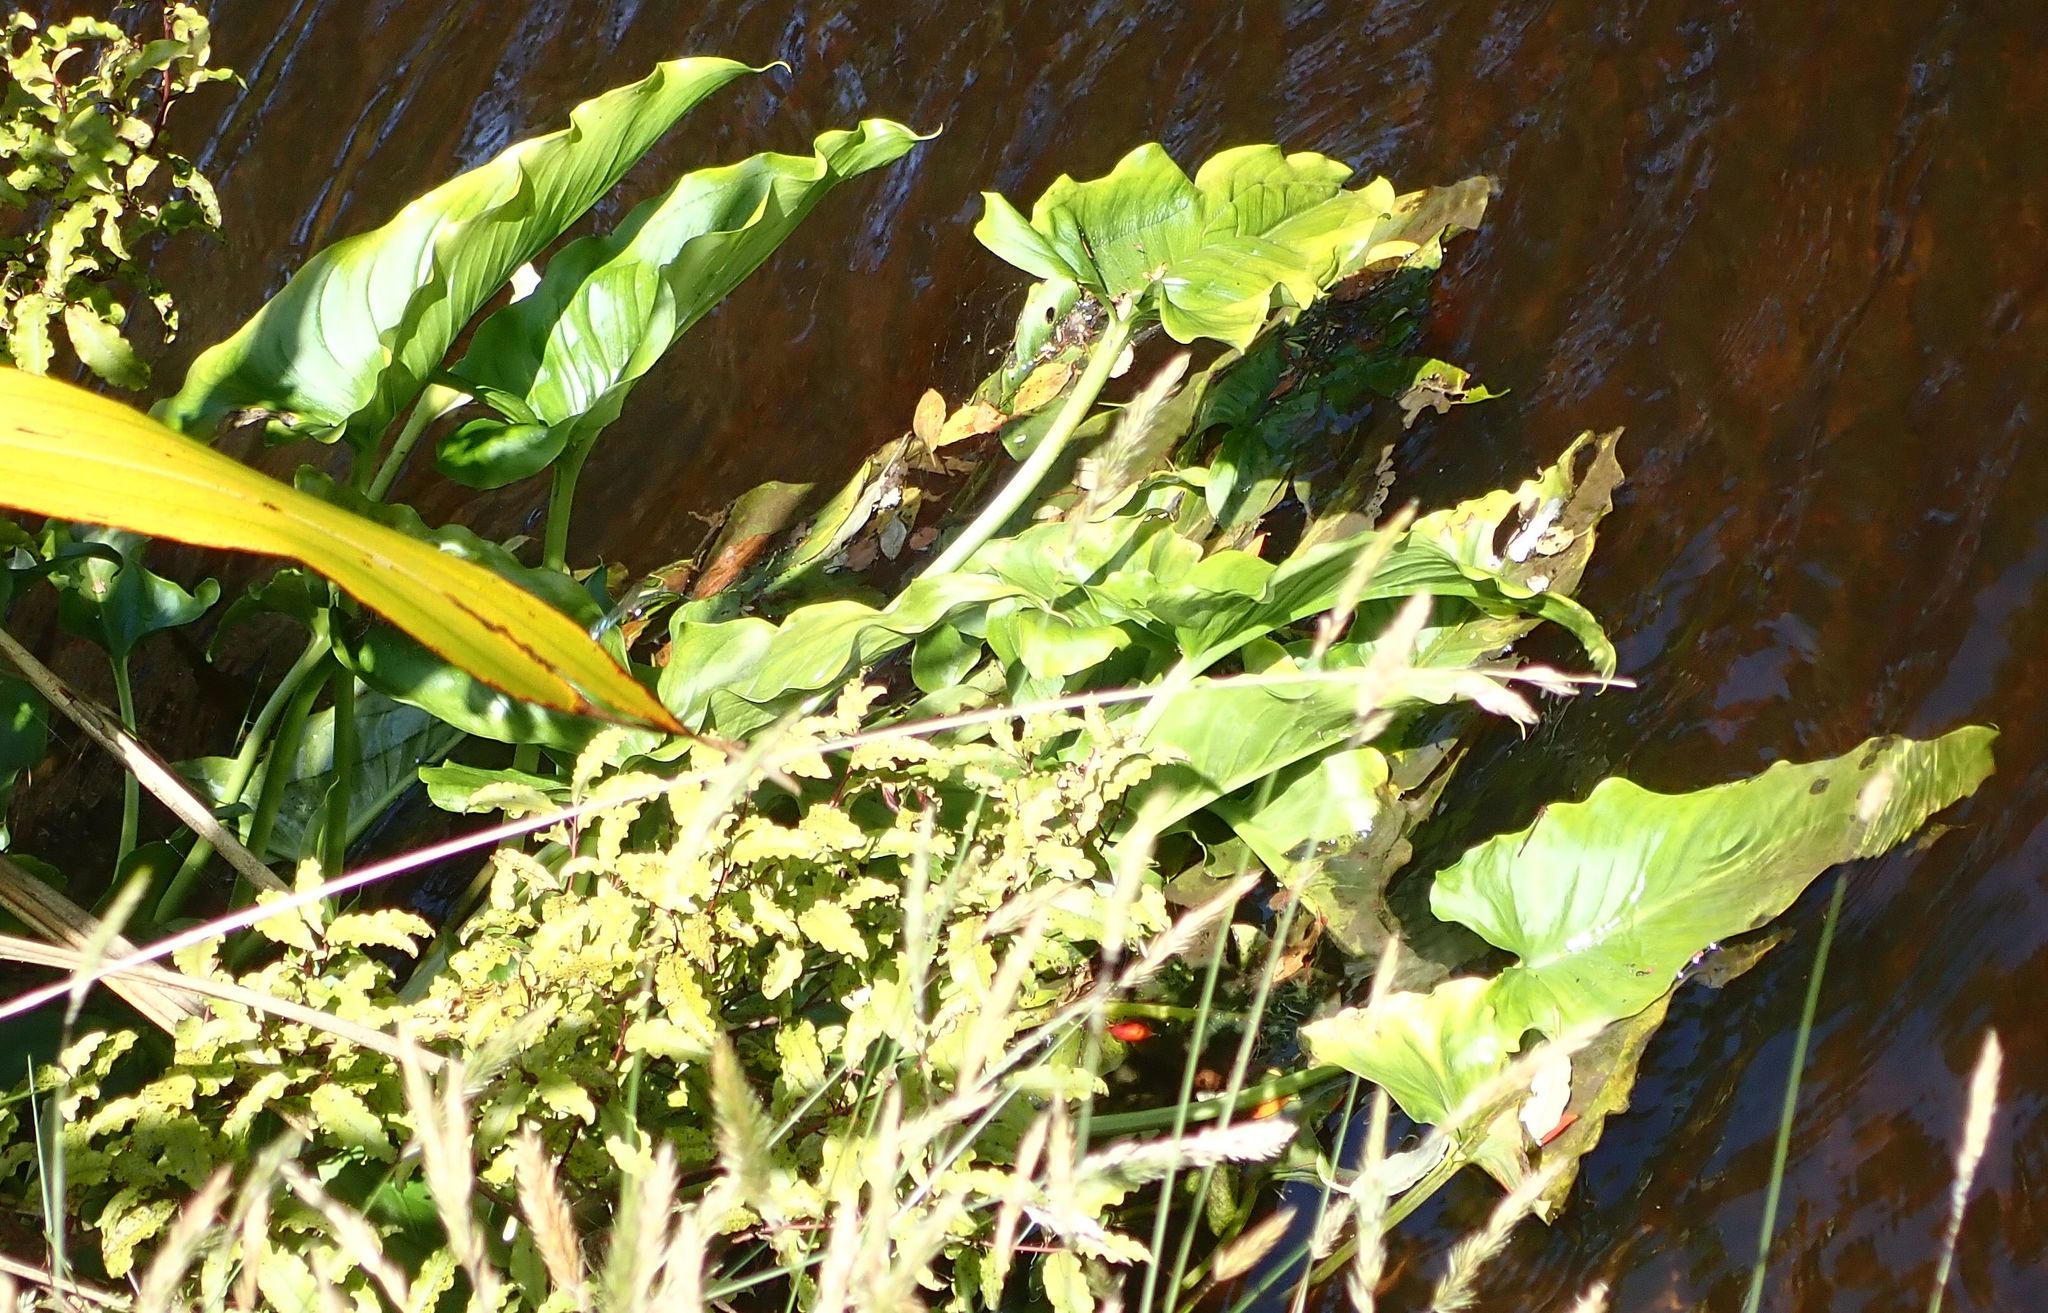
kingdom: Plantae
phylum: Tracheophyta
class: Liliopsida
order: Alismatales
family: Araceae
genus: Zantedeschia
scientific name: Zantedeschia aethiopica
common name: Altar-lily
